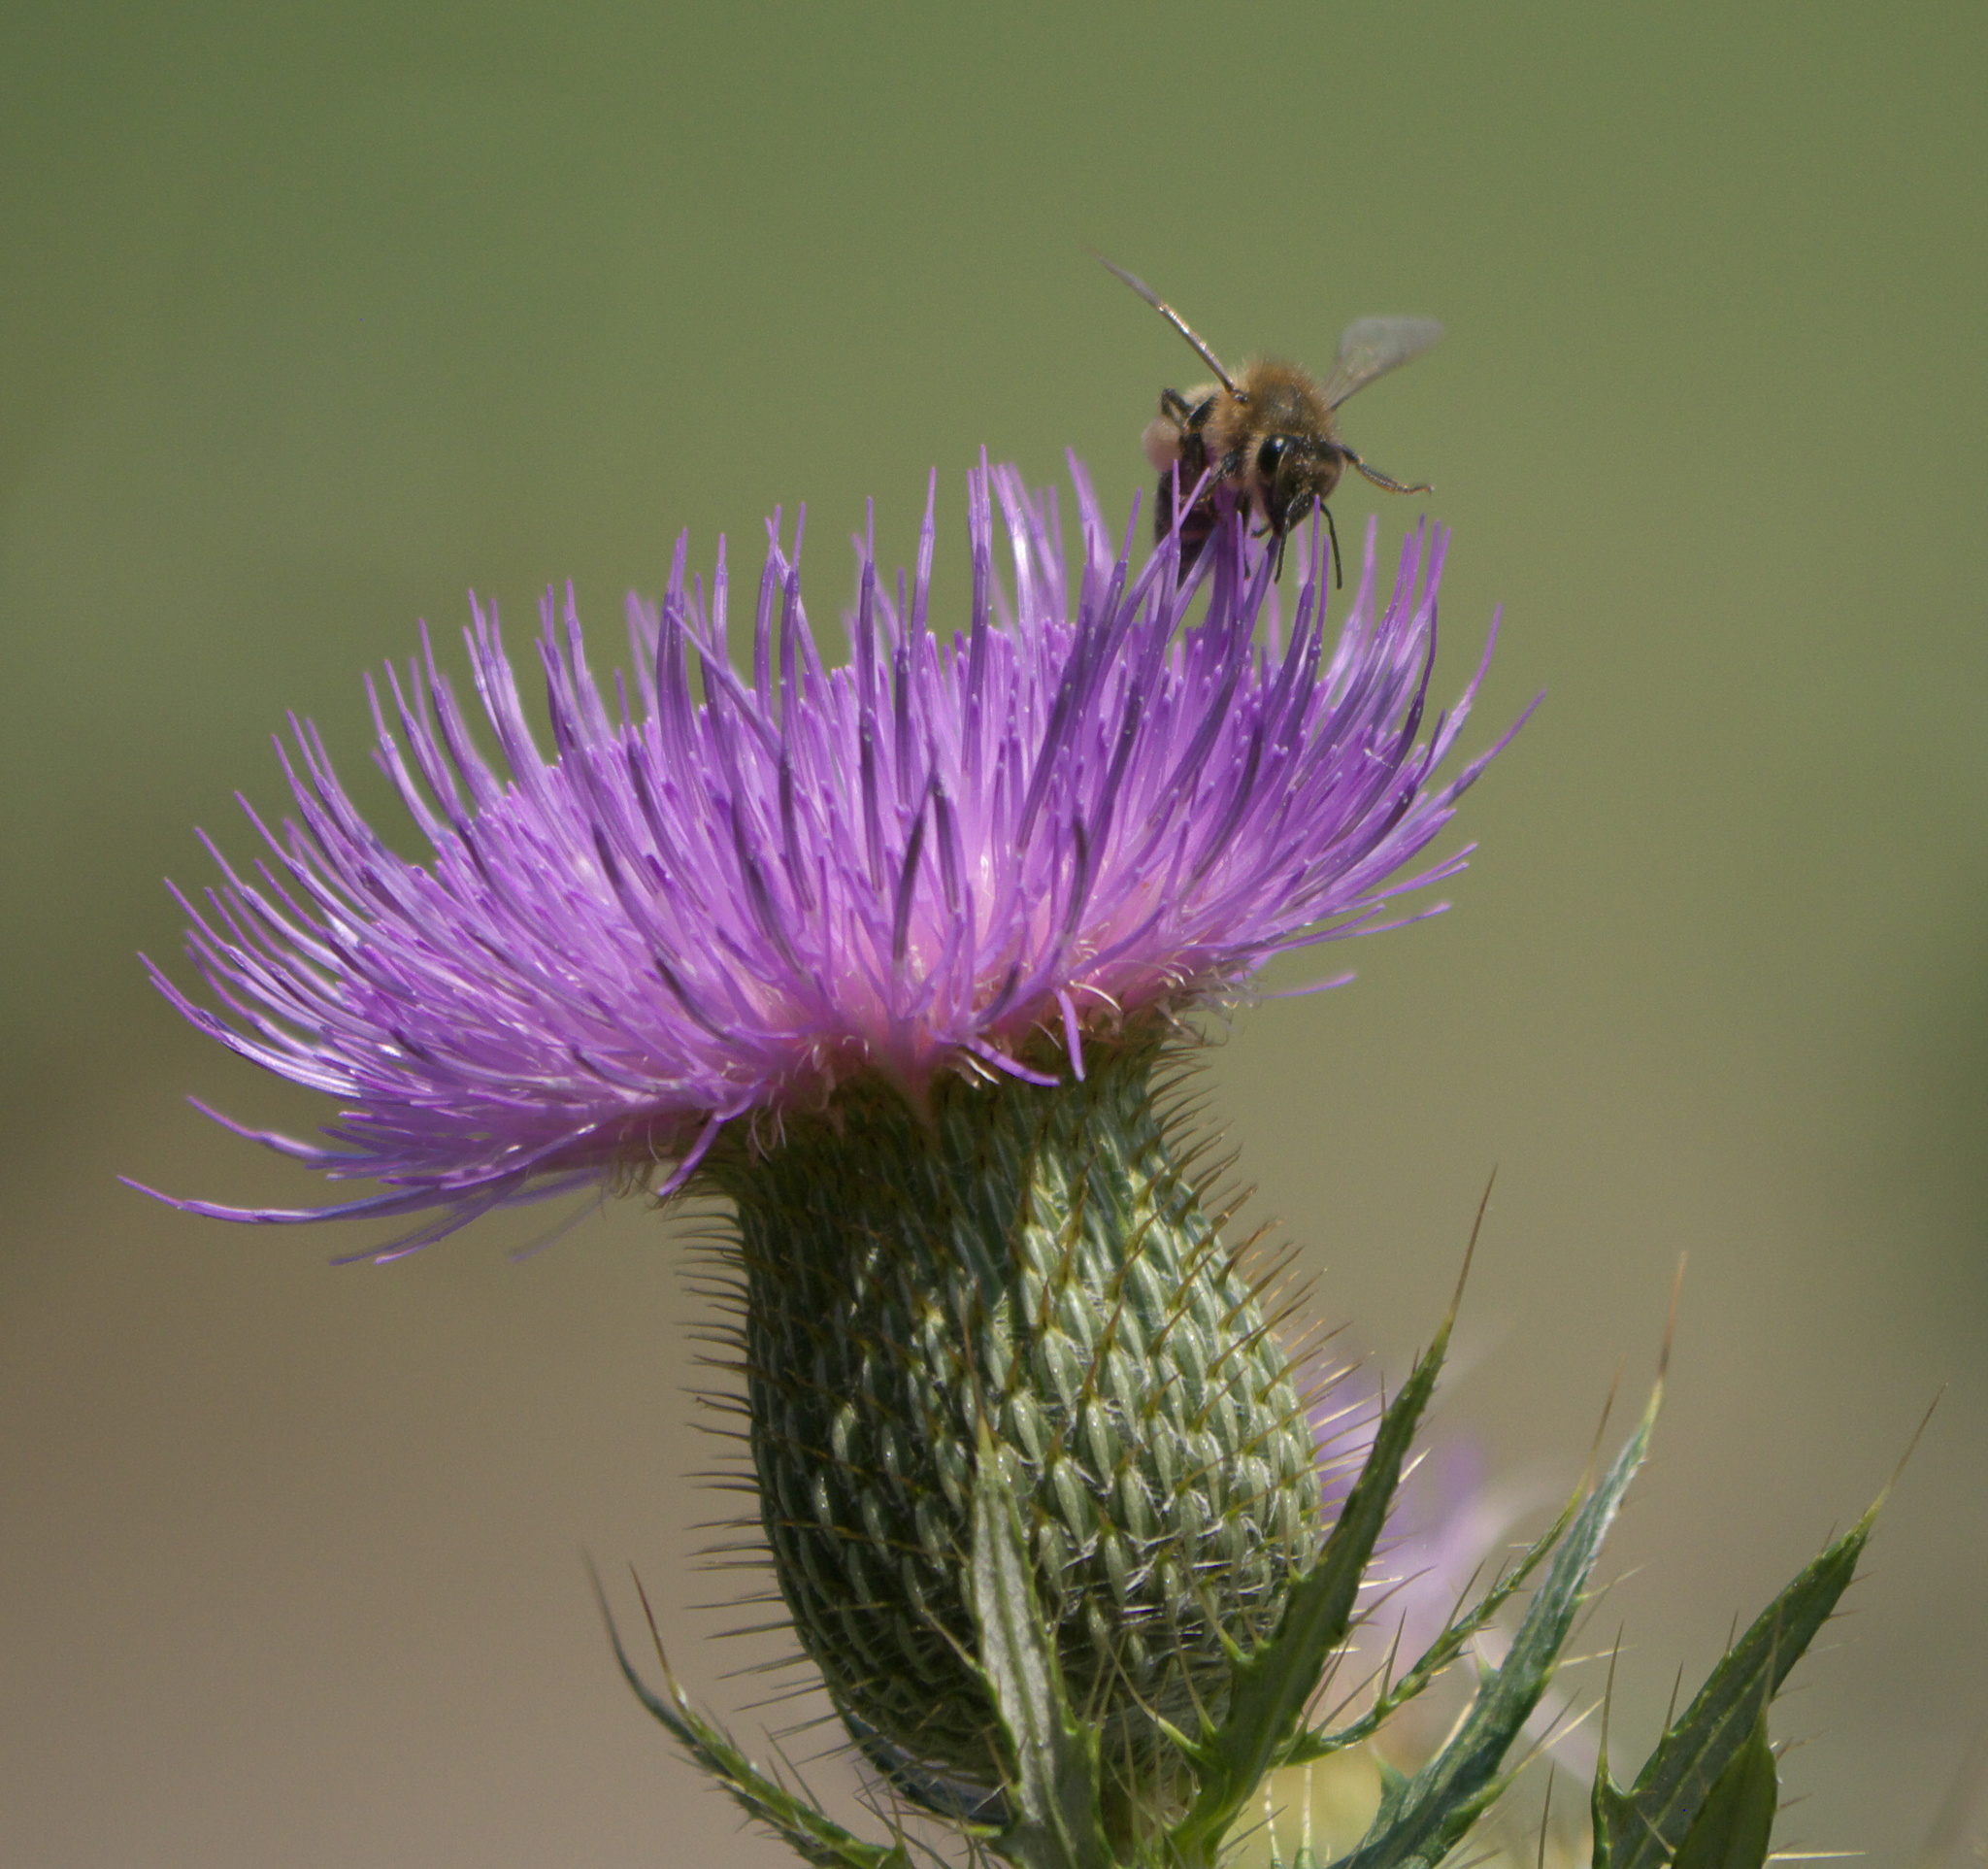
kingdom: Animalia
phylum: Arthropoda
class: Insecta
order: Hymenoptera
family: Apidae
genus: Apis
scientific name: Apis mellifera
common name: Honey bee
